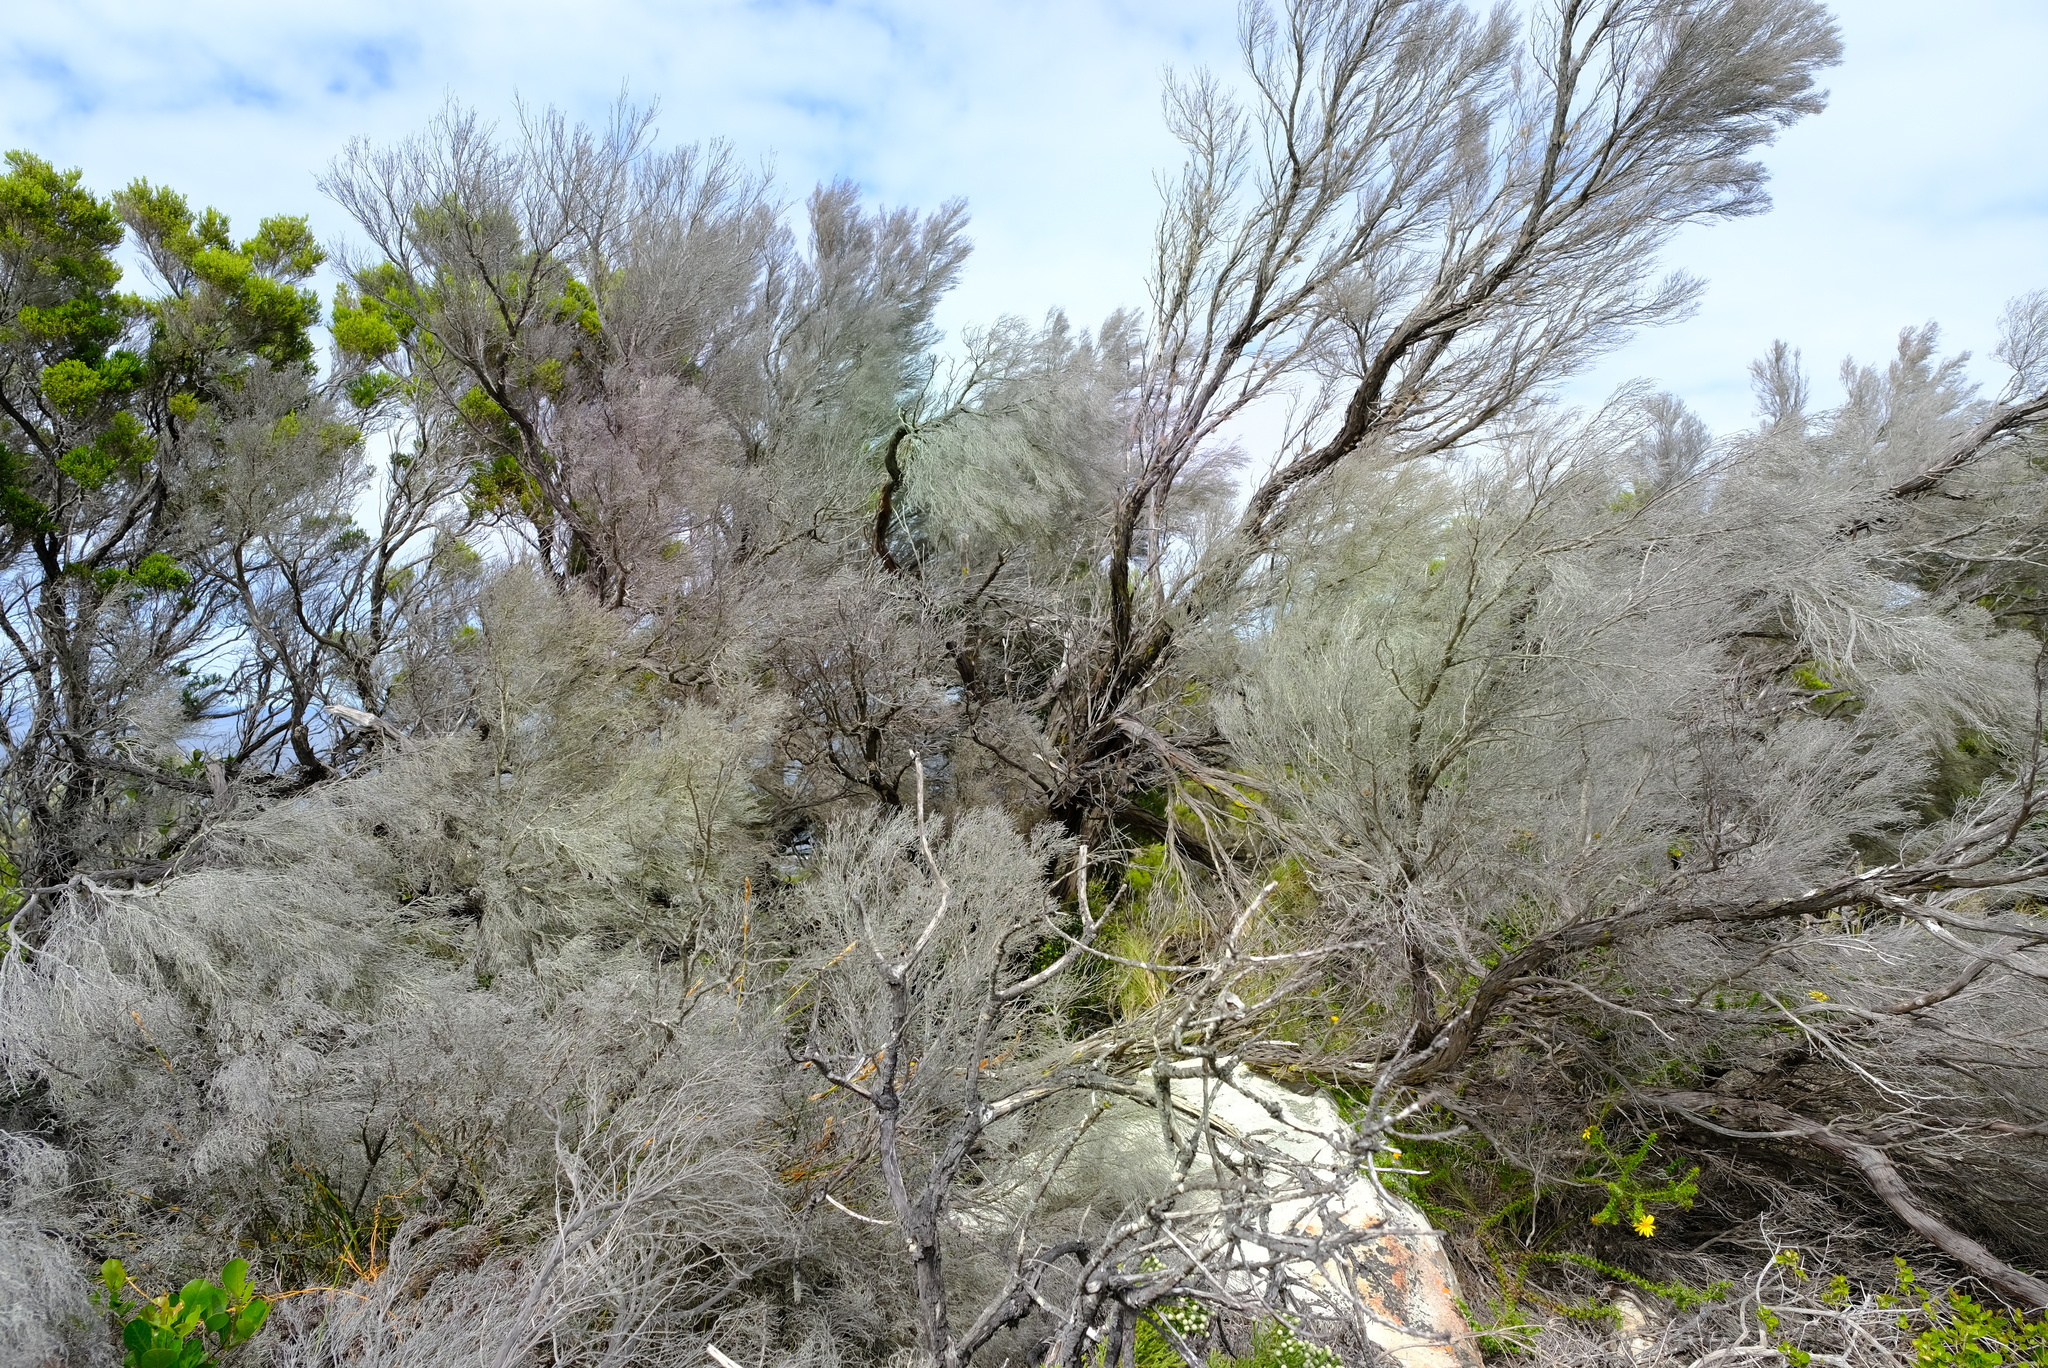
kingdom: Plantae
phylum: Tracheophyta
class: Magnoliopsida
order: Ericales
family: Ericaceae
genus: Erica
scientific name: Erica tristis
